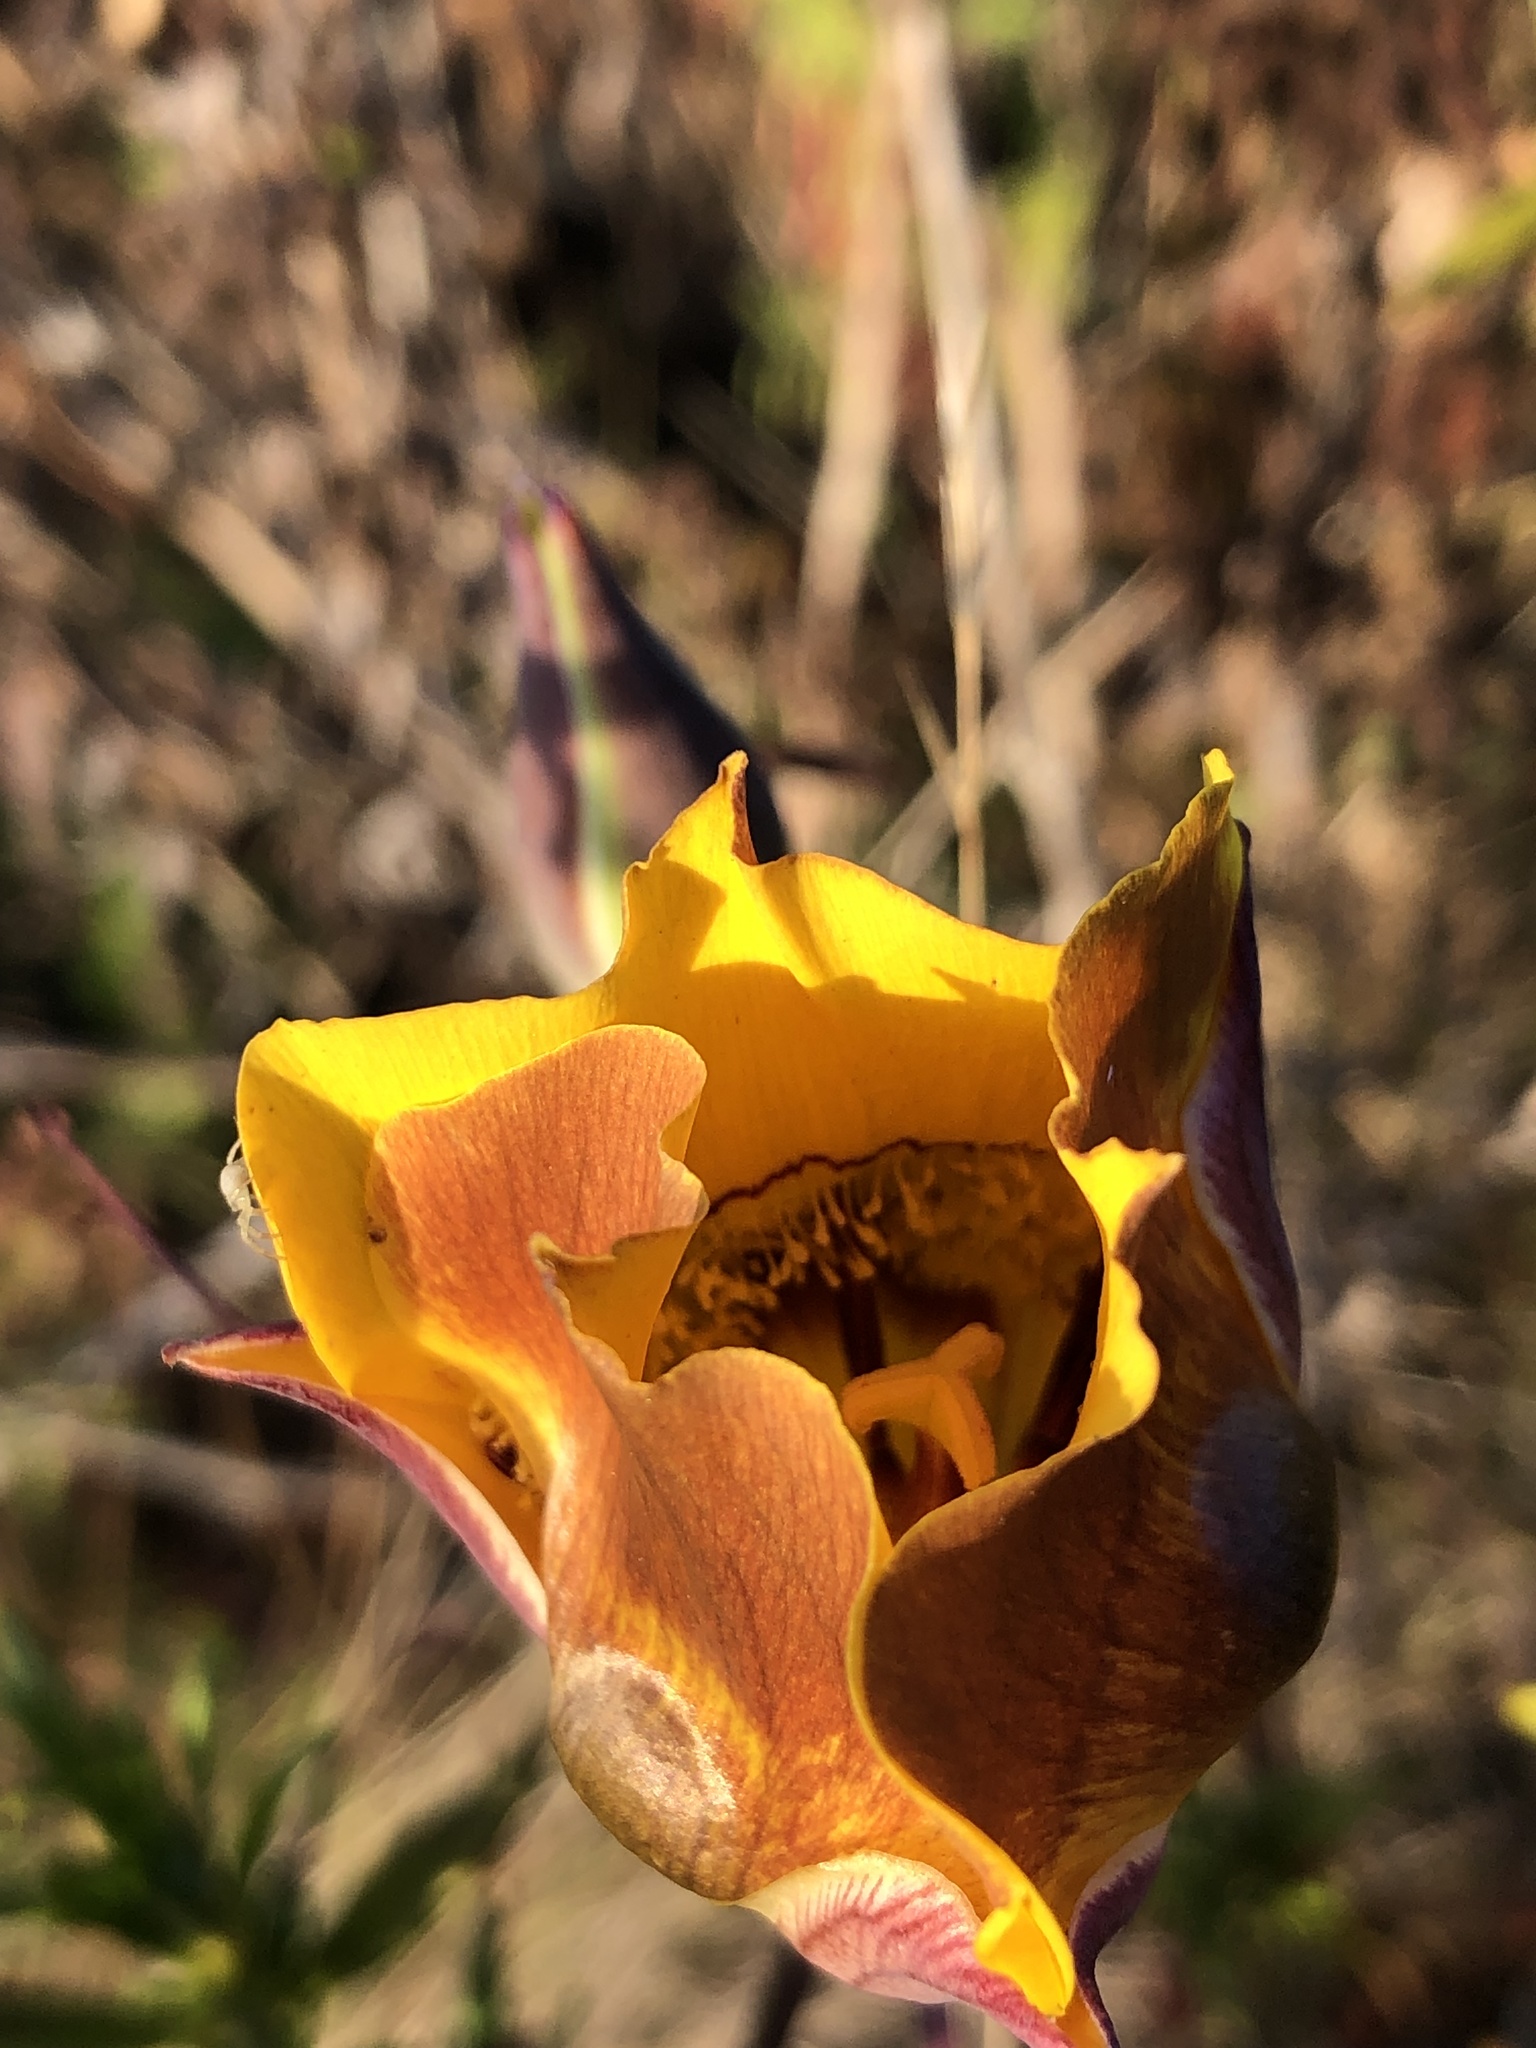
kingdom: Plantae
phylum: Tracheophyta
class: Liliopsida
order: Liliales
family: Liliaceae
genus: Calochortus
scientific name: Calochortus clavatus
